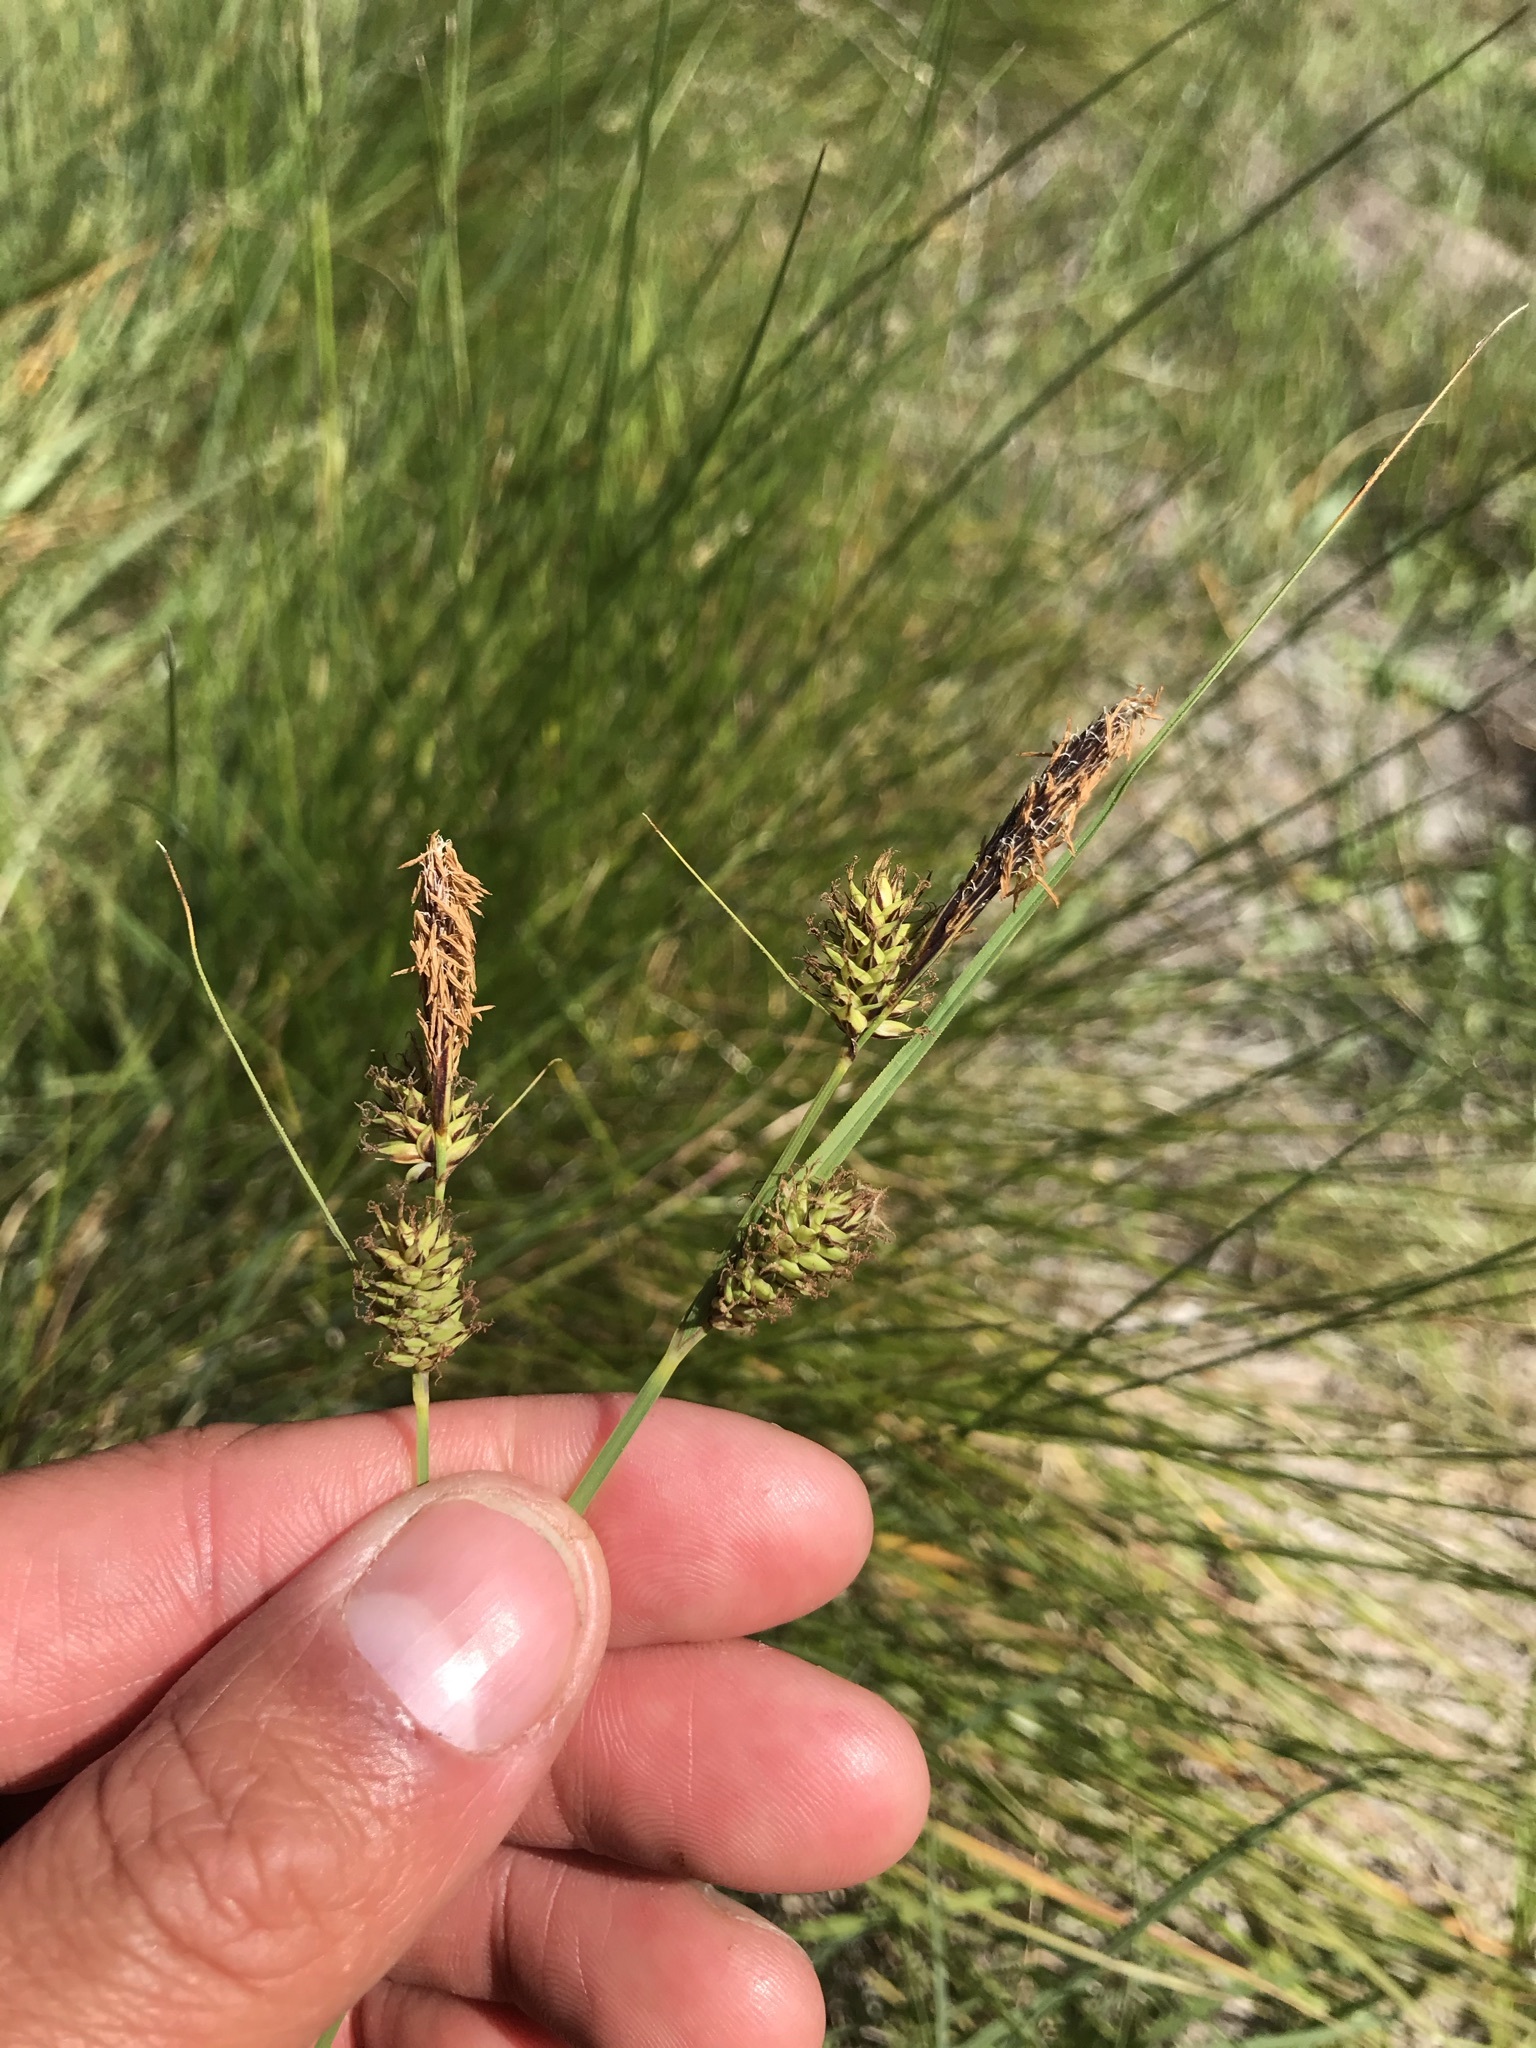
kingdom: Plantae
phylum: Tracheophyta
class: Liliopsida
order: Poales
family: Cyperaceae
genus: Carex
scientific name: Carex serratodens
